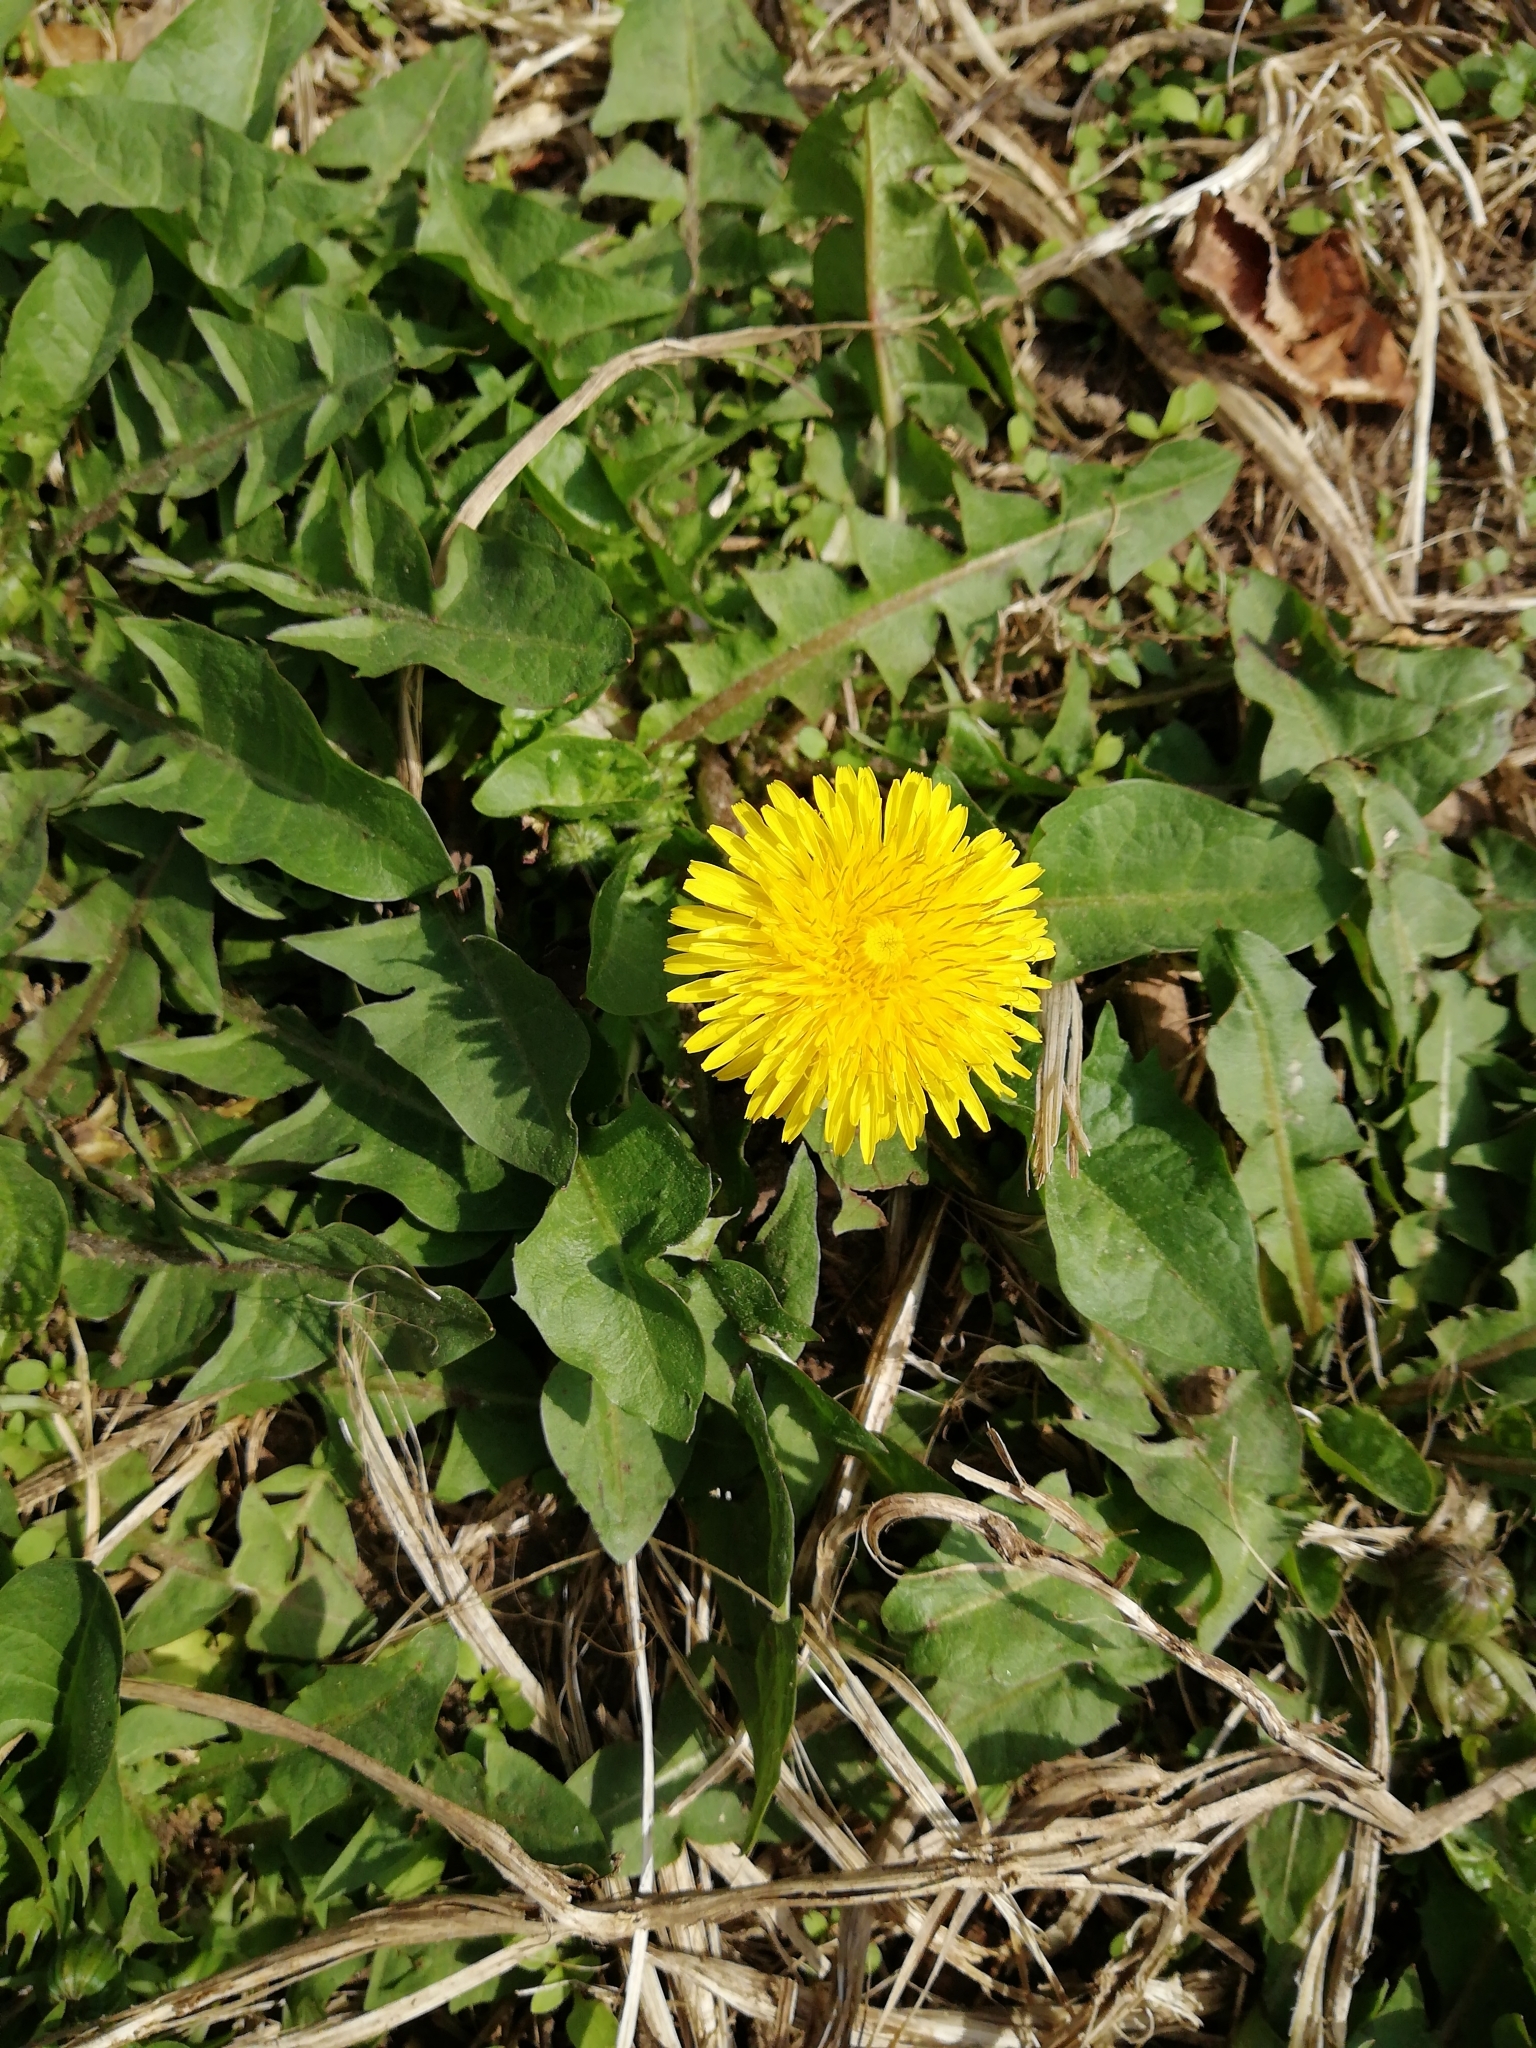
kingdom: Plantae
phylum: Tracheophyta
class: Magnoliopsida
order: Asterales
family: Asteraceae
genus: Taraxacum
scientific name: Taraxacum officinale
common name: Common dandelion
